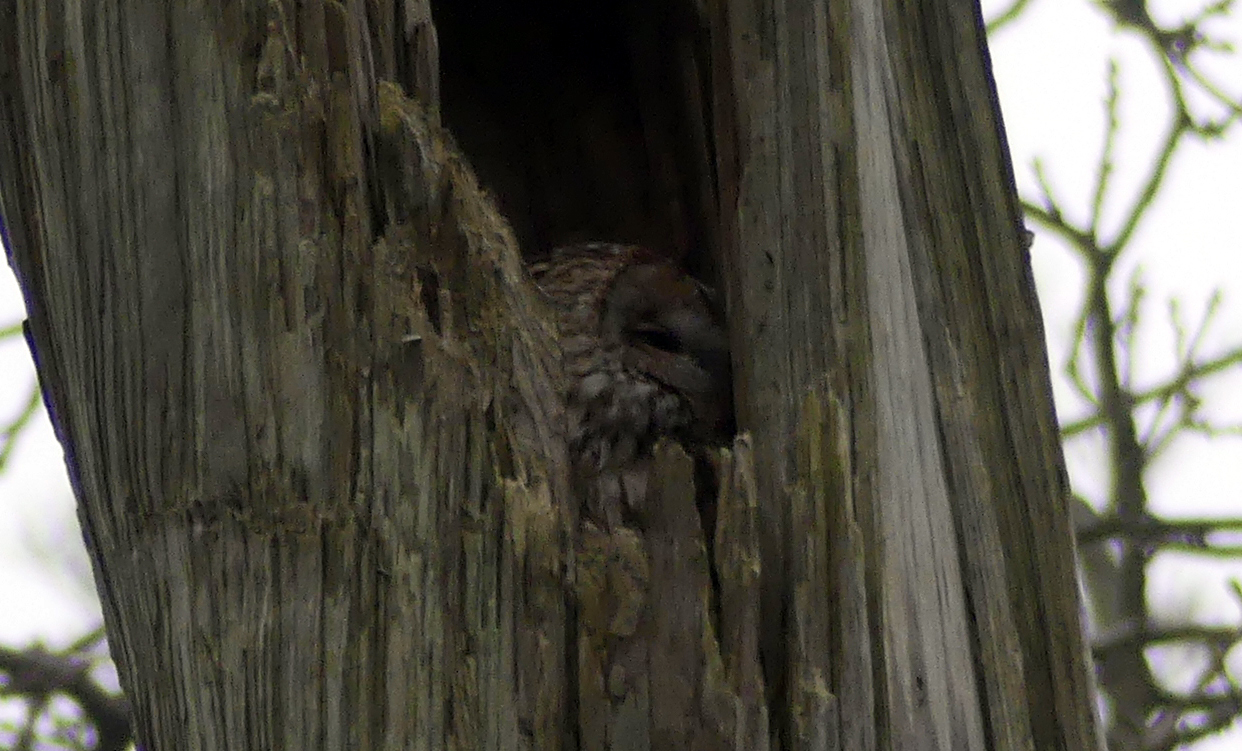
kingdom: Animalia
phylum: Chordata
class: Aves
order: Strigiformes
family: Strigidae
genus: Strix
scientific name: Strix aluco
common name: Tawny owl
